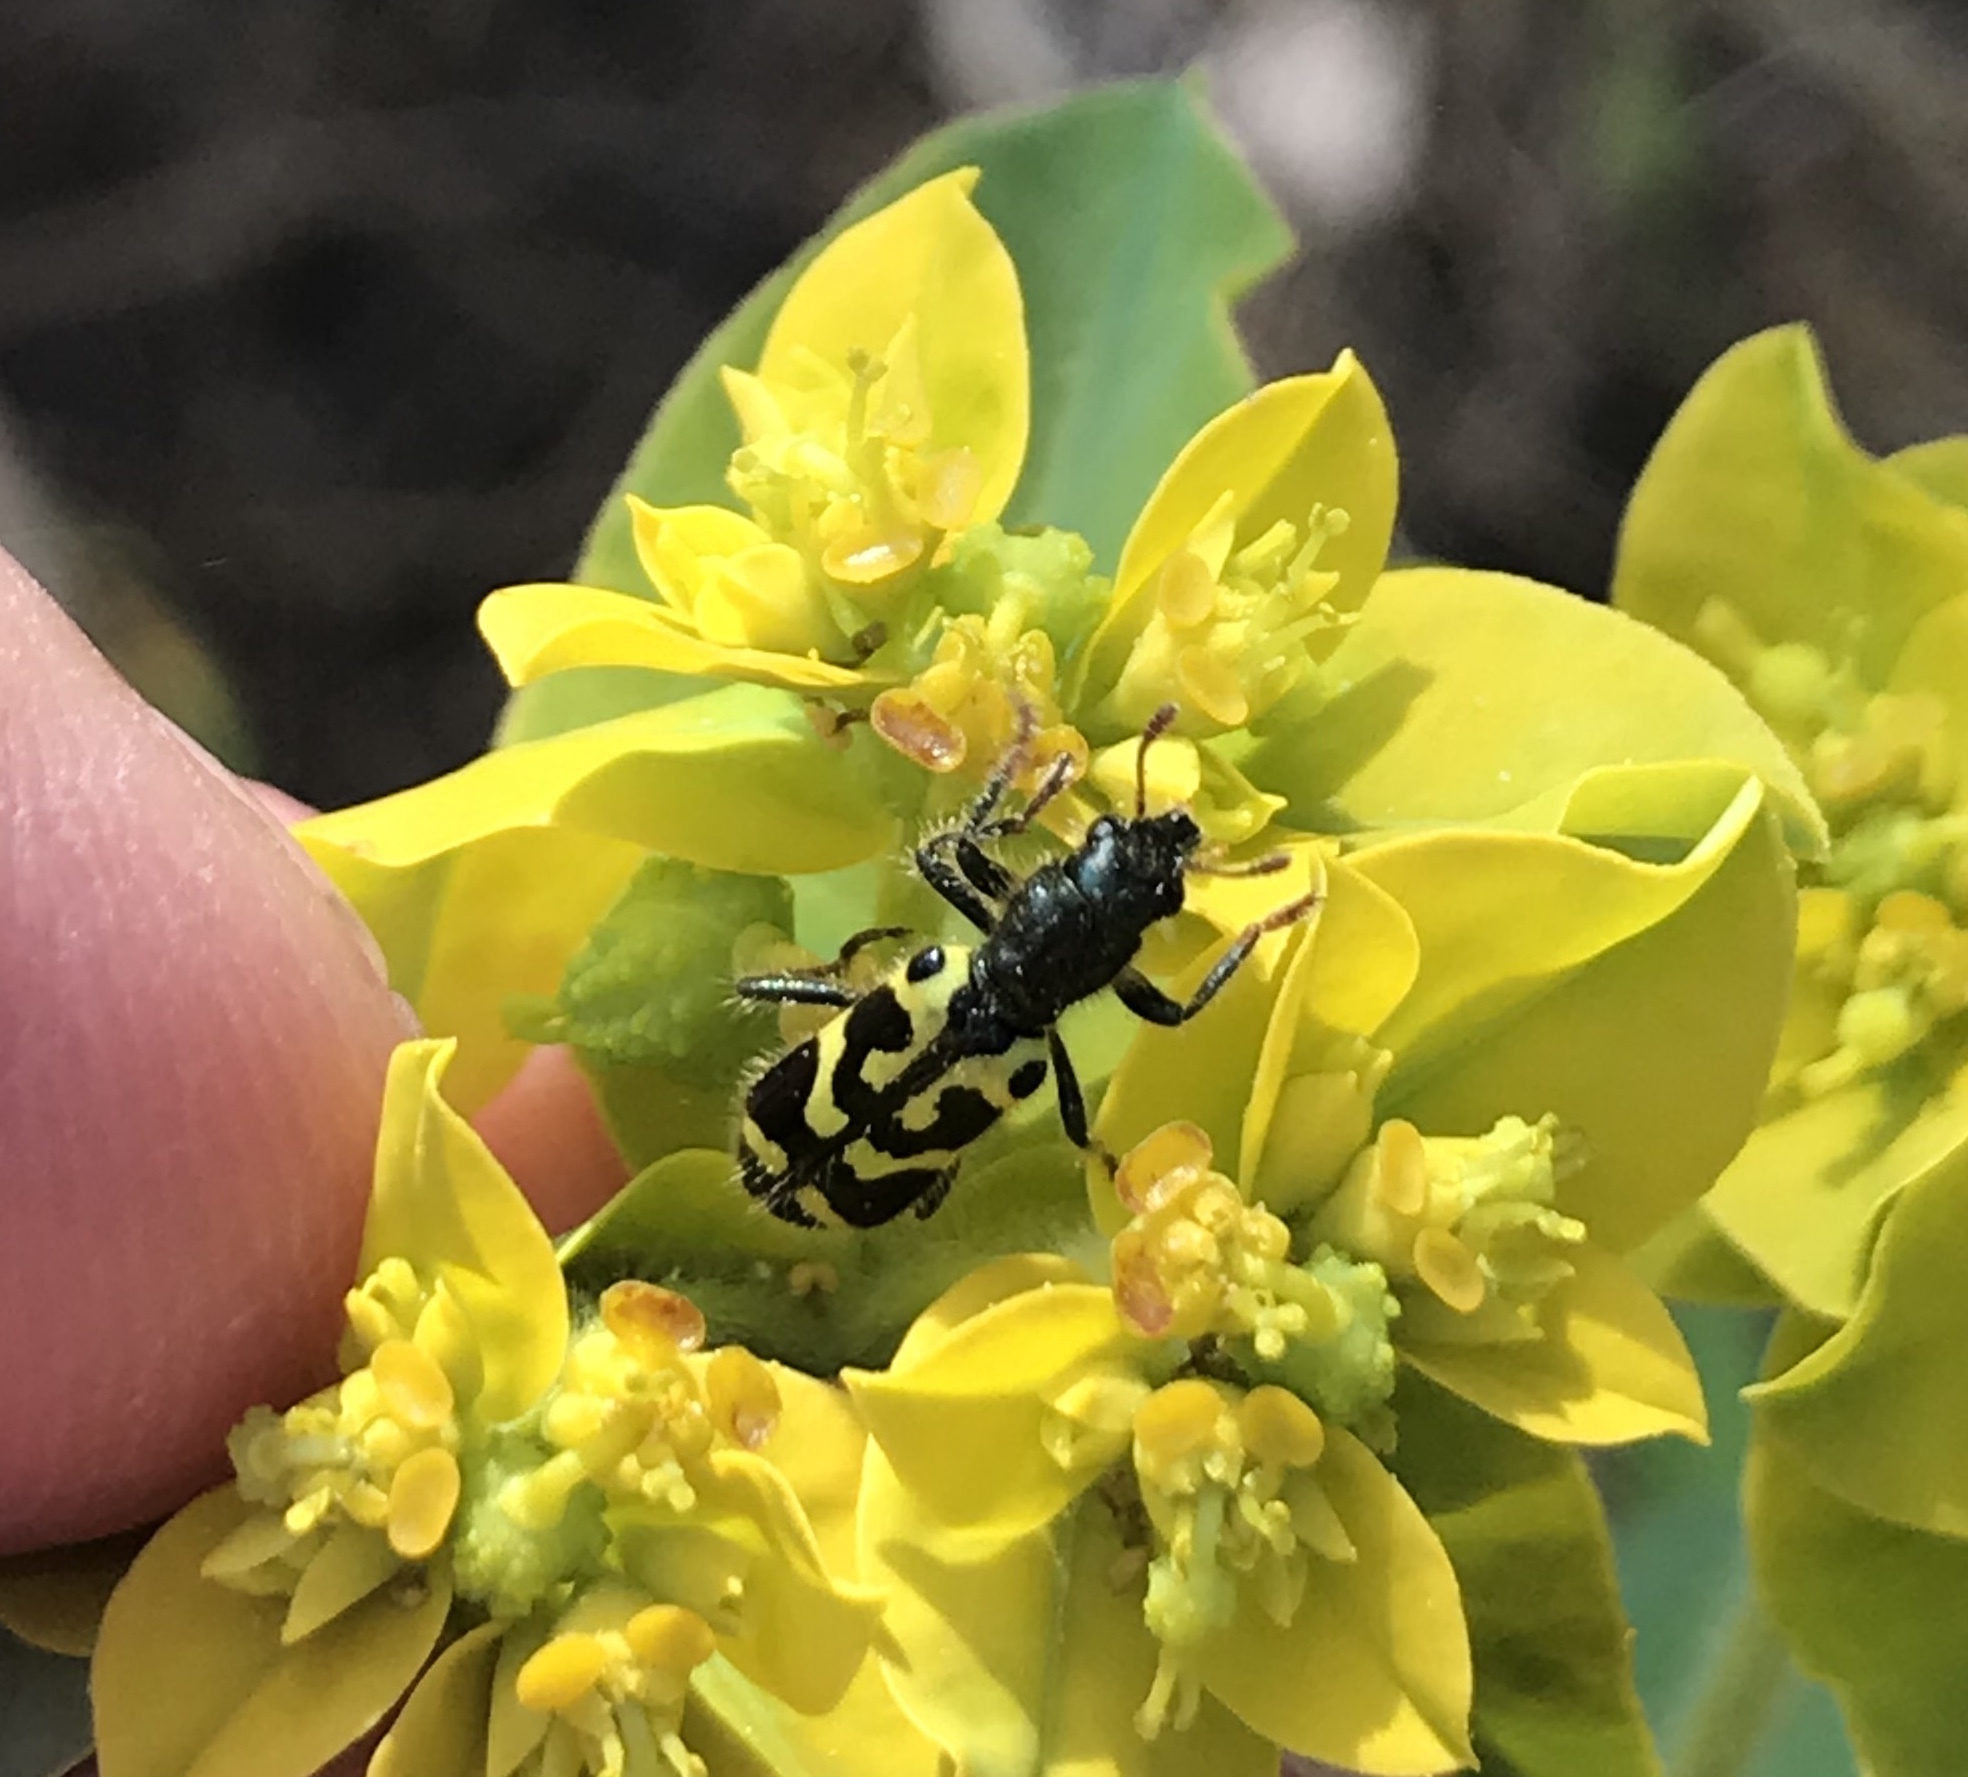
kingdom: Animalia
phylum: Arthropoda
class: Insecta
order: Coleoptera
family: Cleridae
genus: Trichodes
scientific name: Trichodes ornatus
